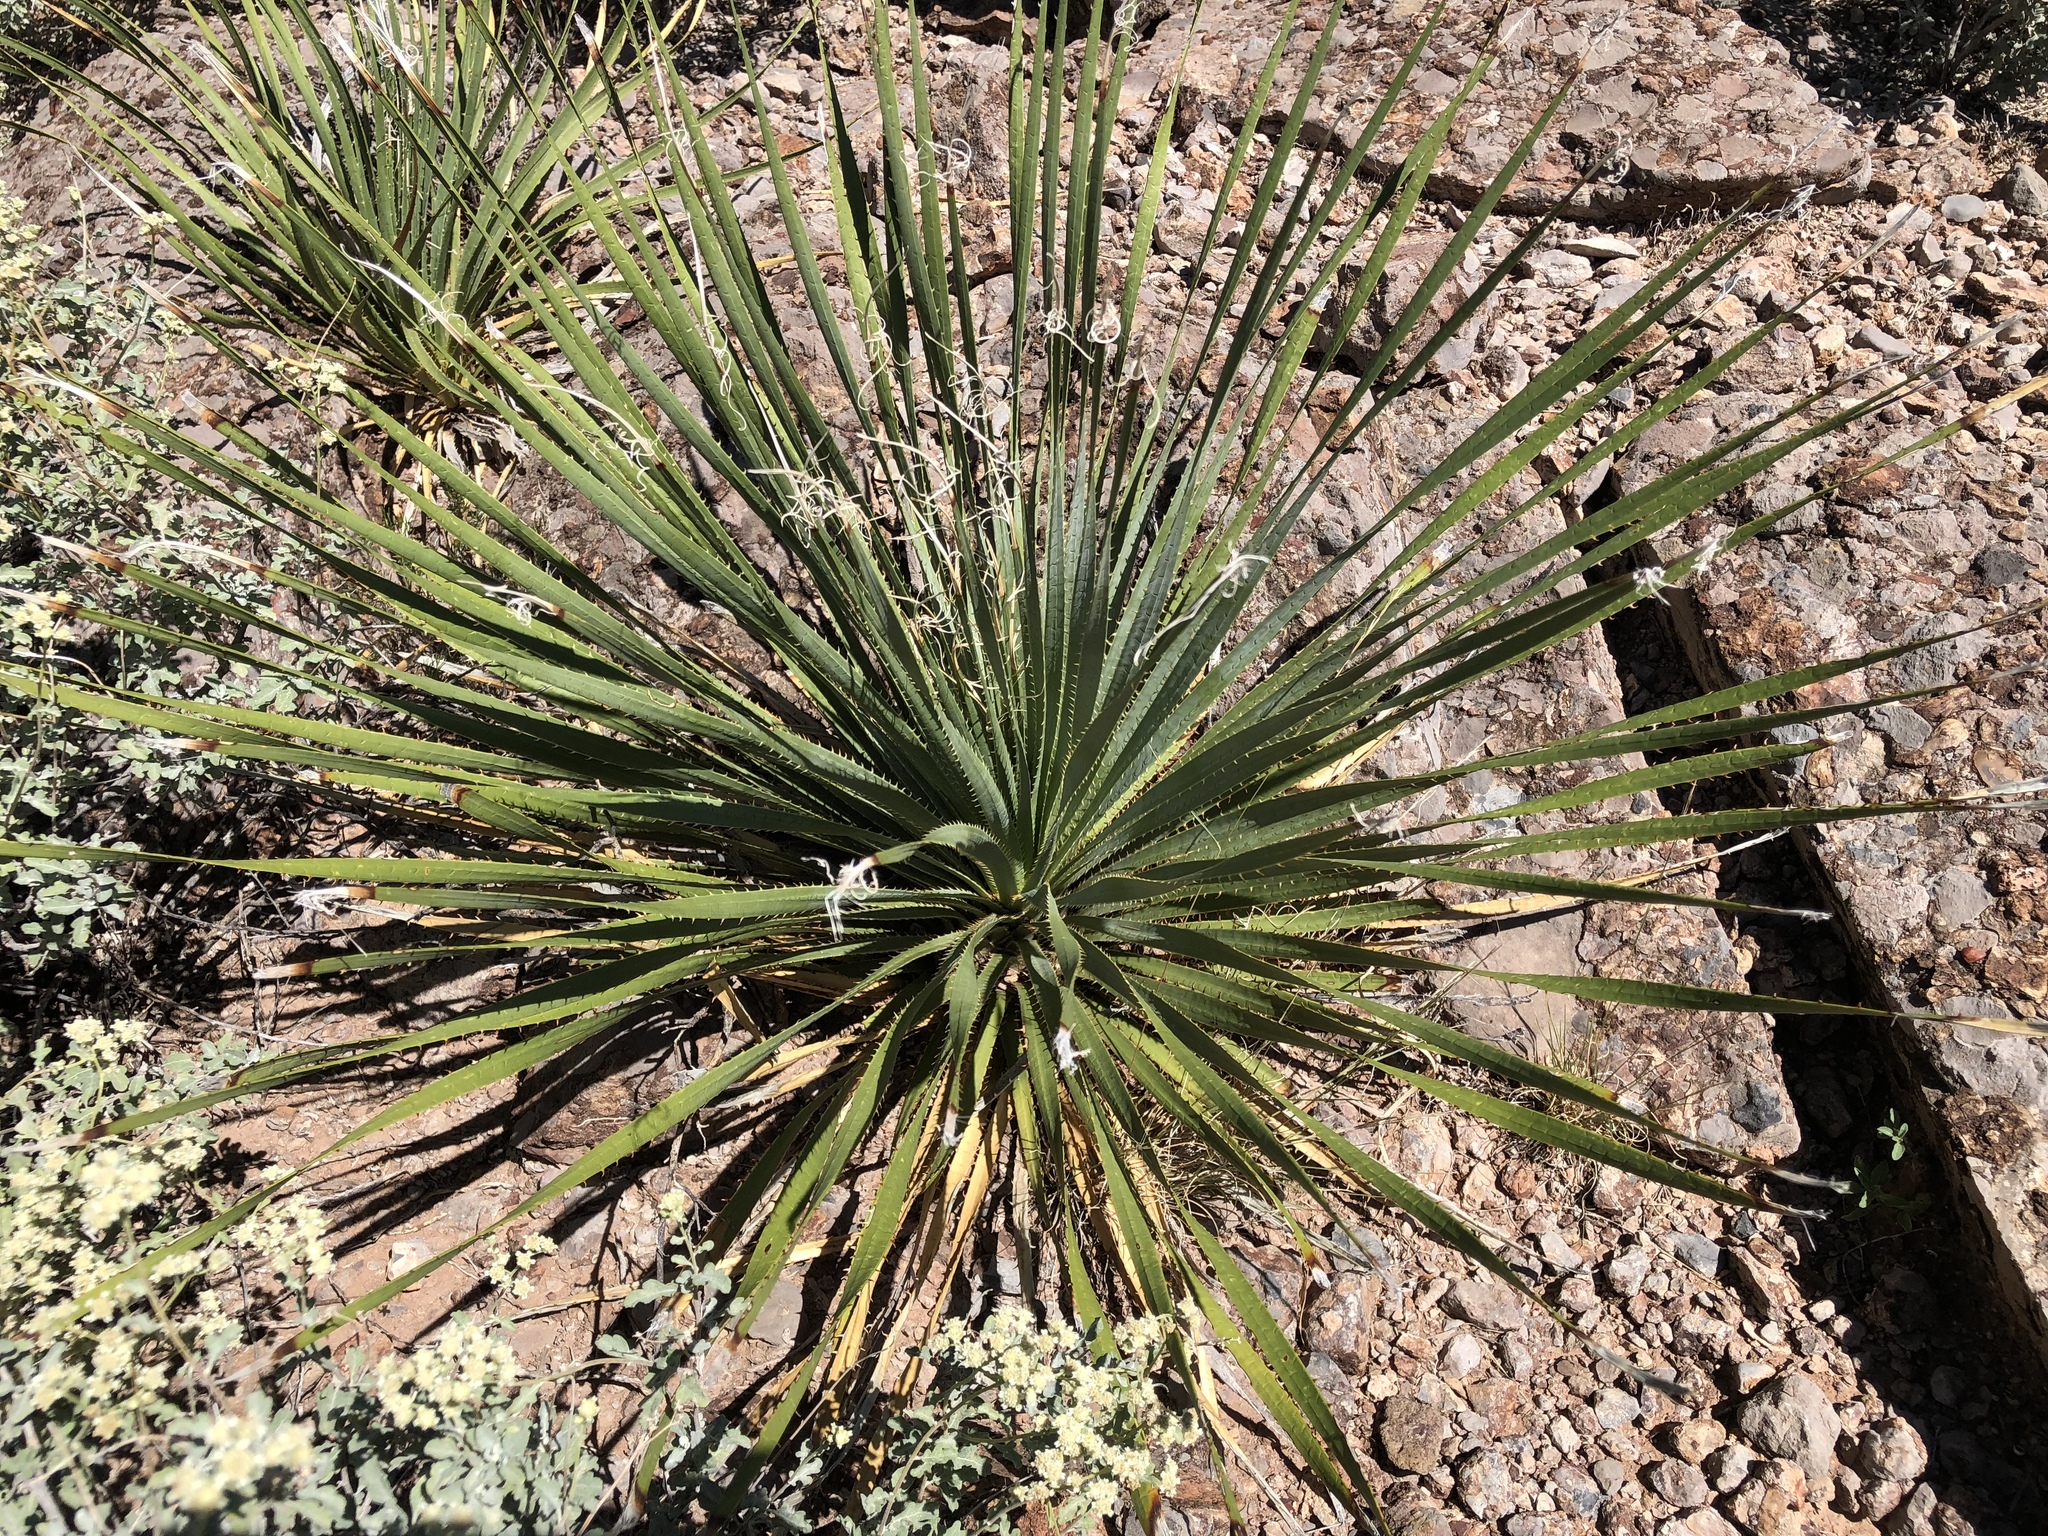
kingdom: Plantae
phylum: Tracheophyta
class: Liliopsida
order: Asparagales
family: Asparagaceae
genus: Dasylirion
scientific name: Dasylirion wheeleri
